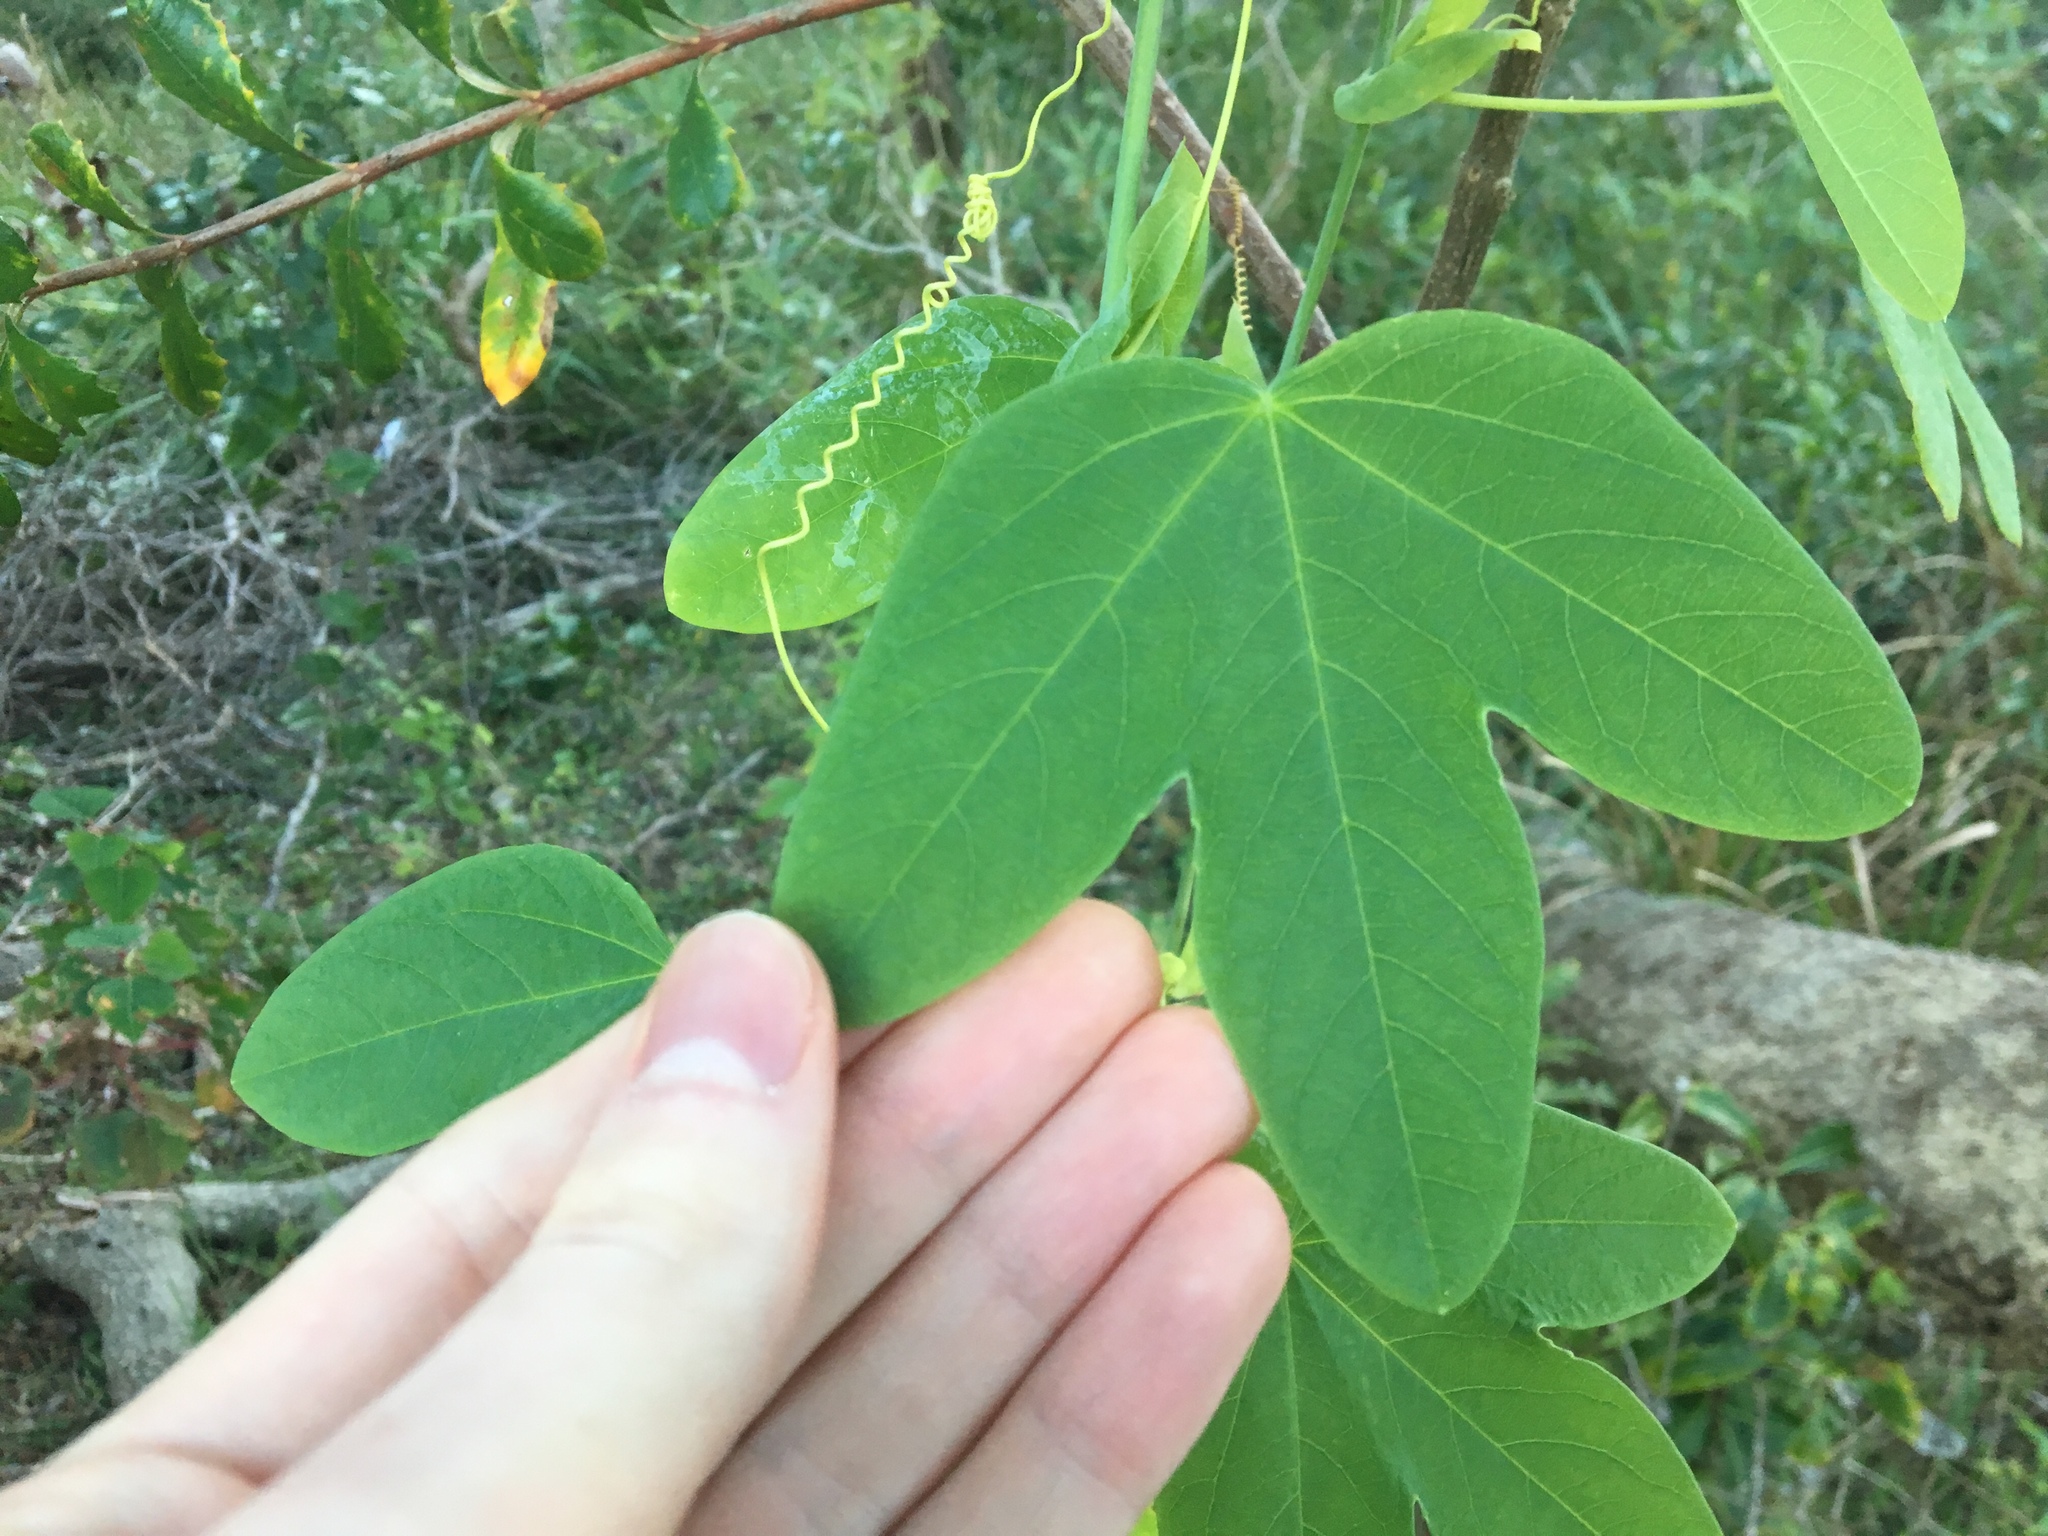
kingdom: Plantae
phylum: Tracheophyta
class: Magnoliopsida
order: Malpighiales
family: Passifloraceae
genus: Passiflora
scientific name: Passiflora subpeltata
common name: White passionflower
